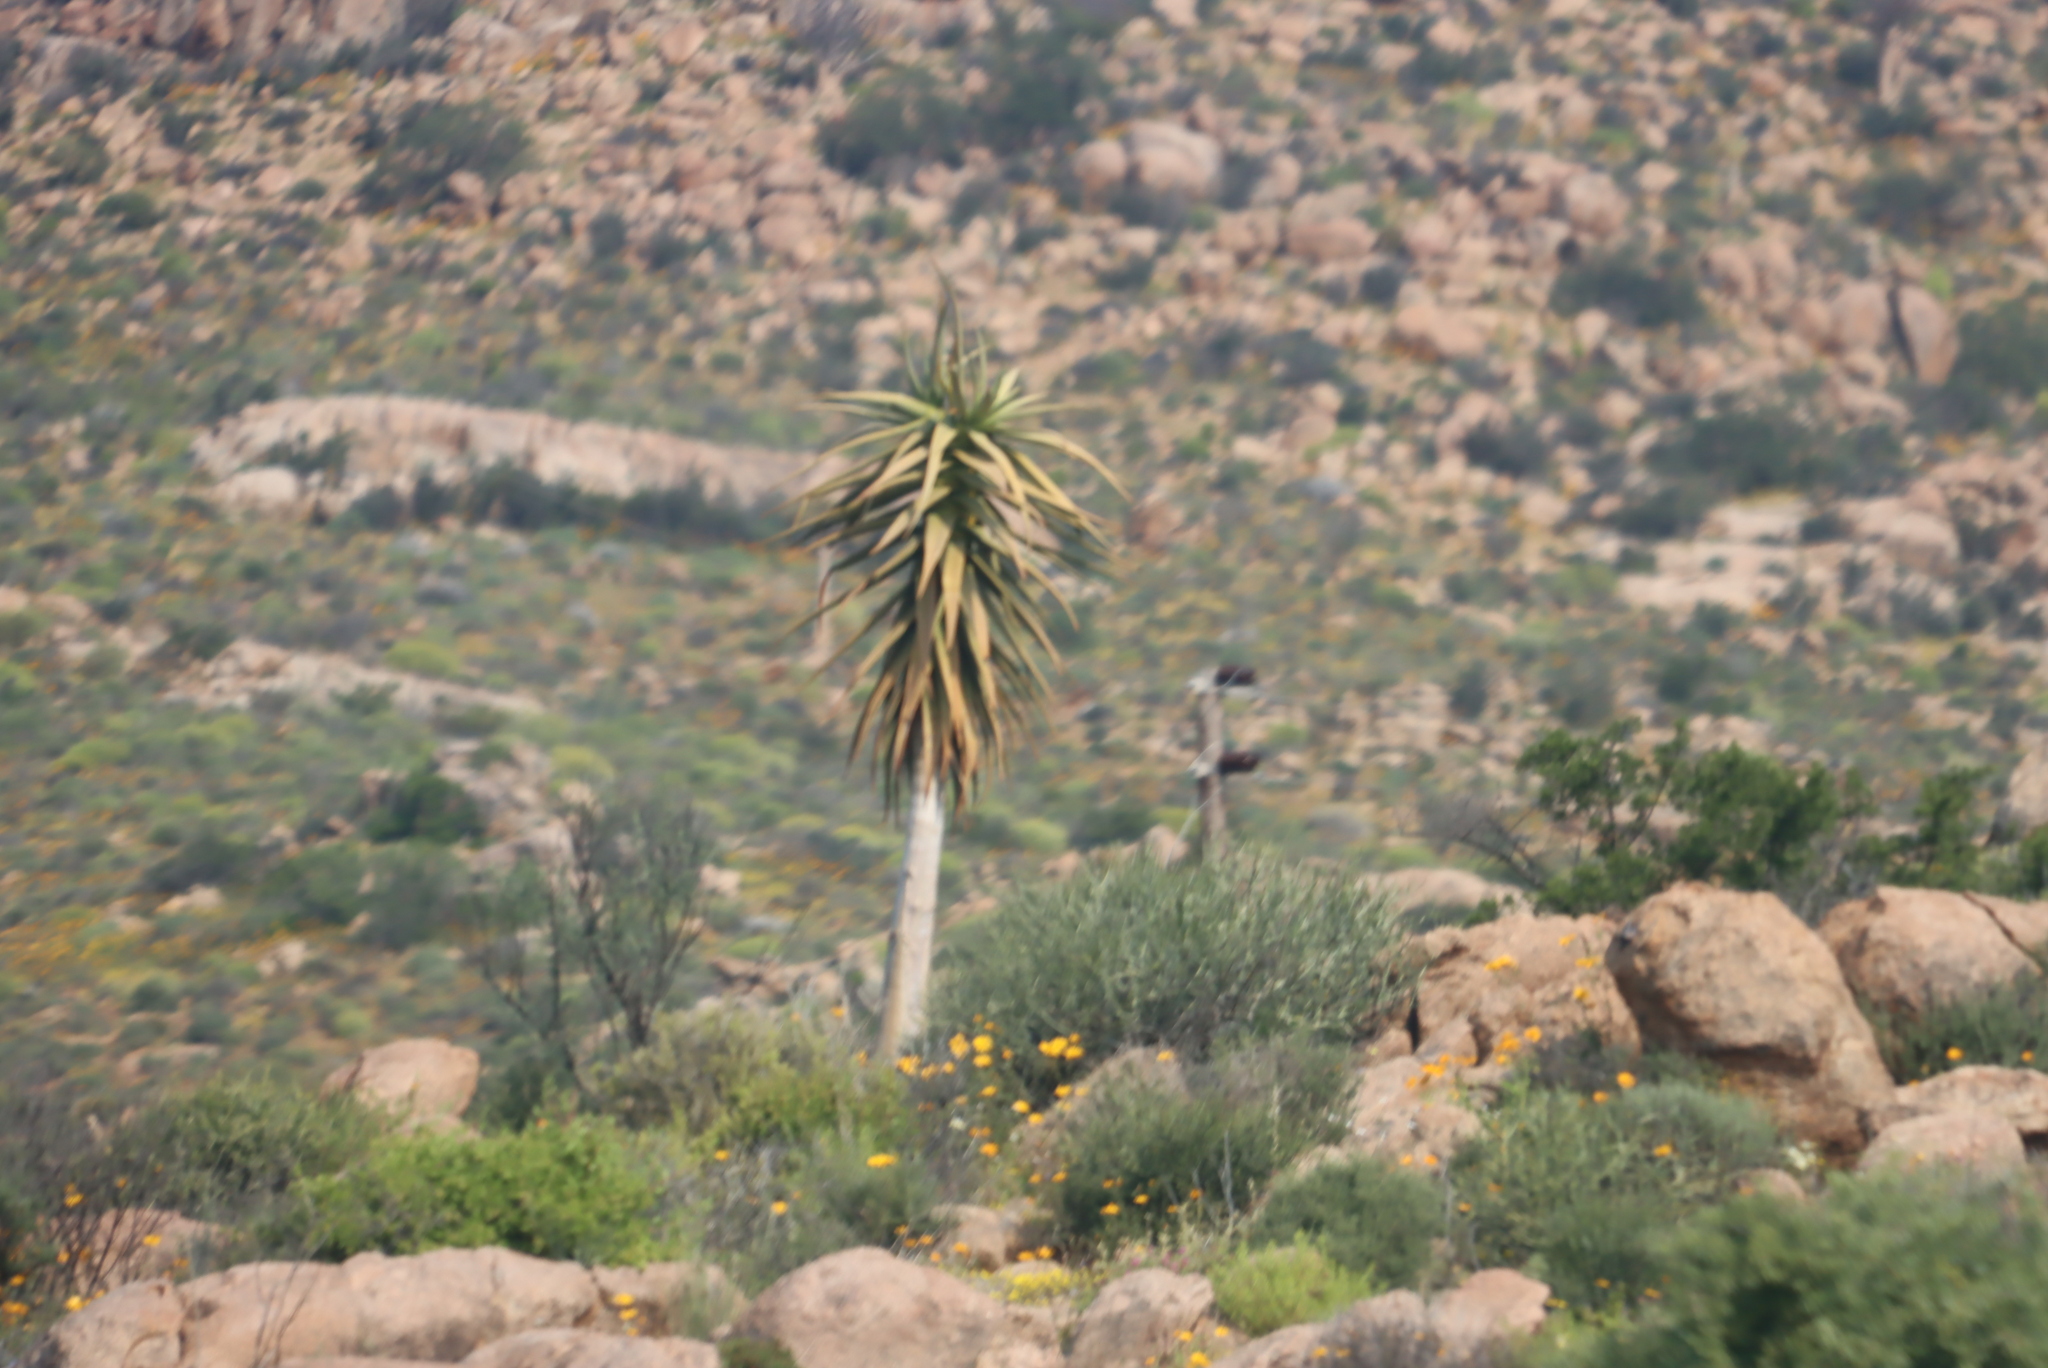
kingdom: Plantae
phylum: Tracheophyta
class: Liliopsida
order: Asparagales
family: Asphodelaceae
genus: Aloidendron
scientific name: Aloidendron dichotomum
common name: Quiver tree
